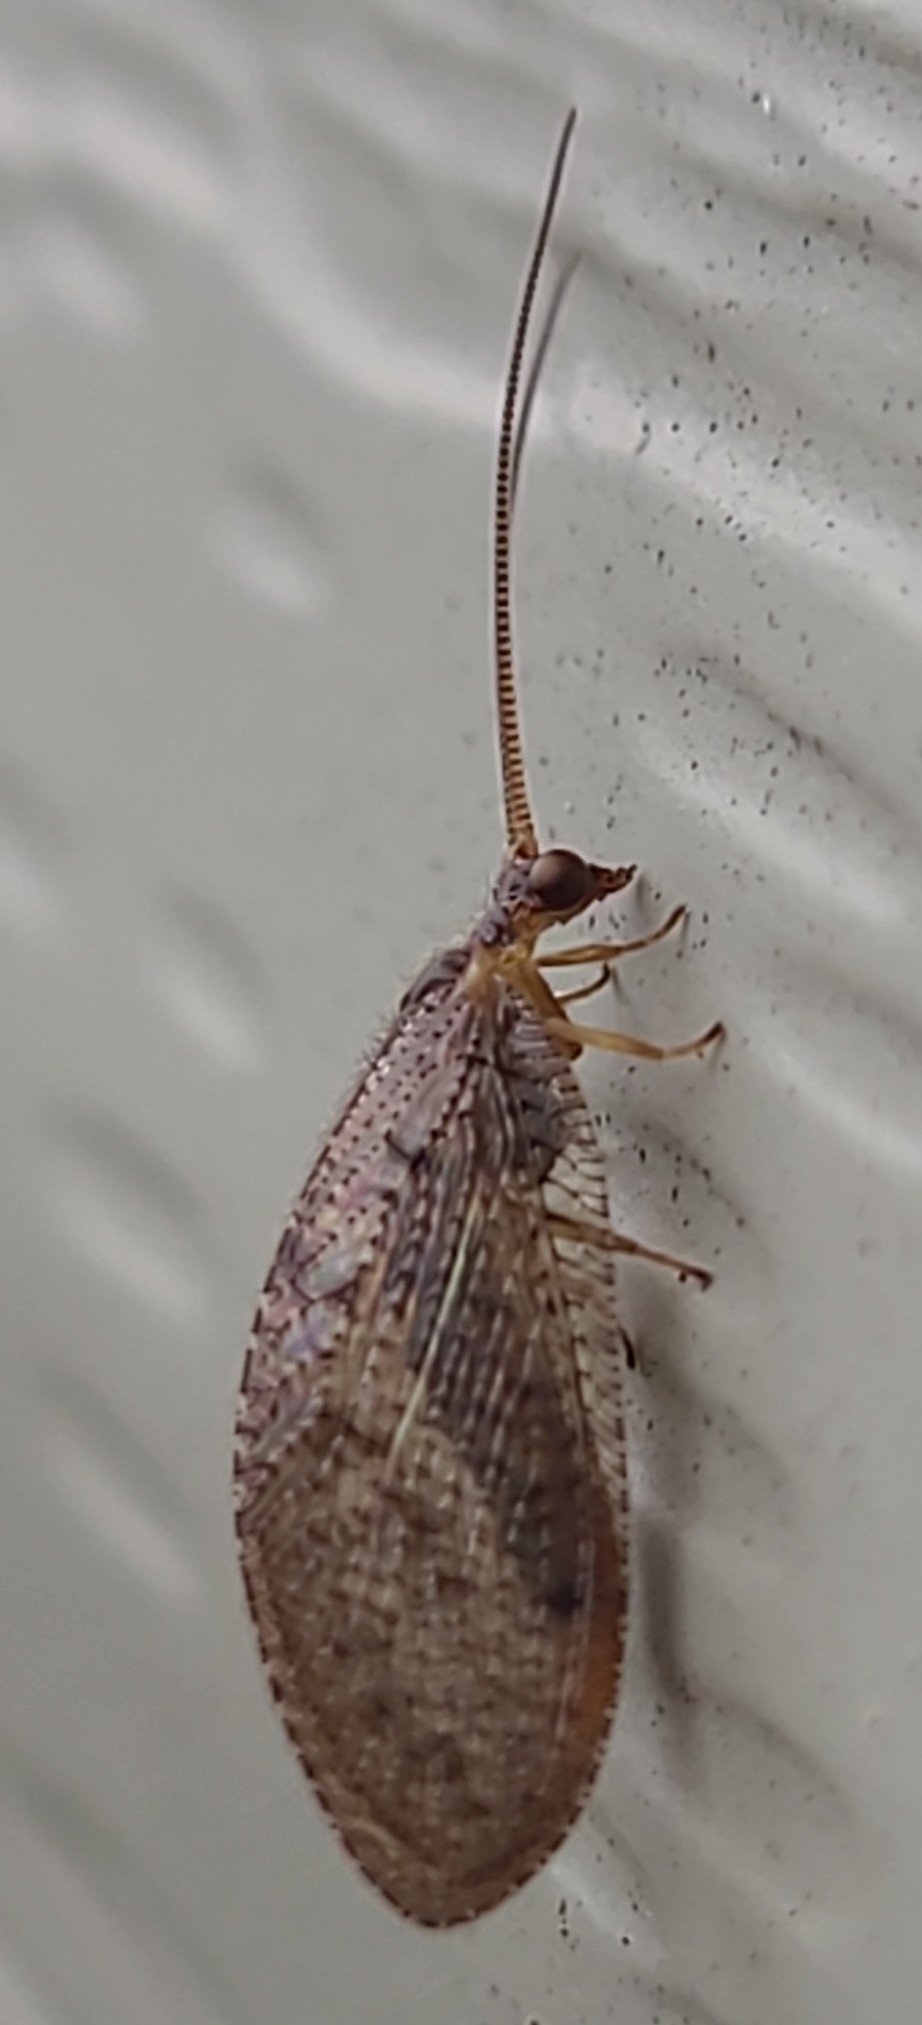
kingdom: Animalia
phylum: Arthropoda
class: Insecta
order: Neuroptera
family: Hemerobiidae
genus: Hemerobius
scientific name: Hemerobius stigma
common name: Brown pine lacewing
